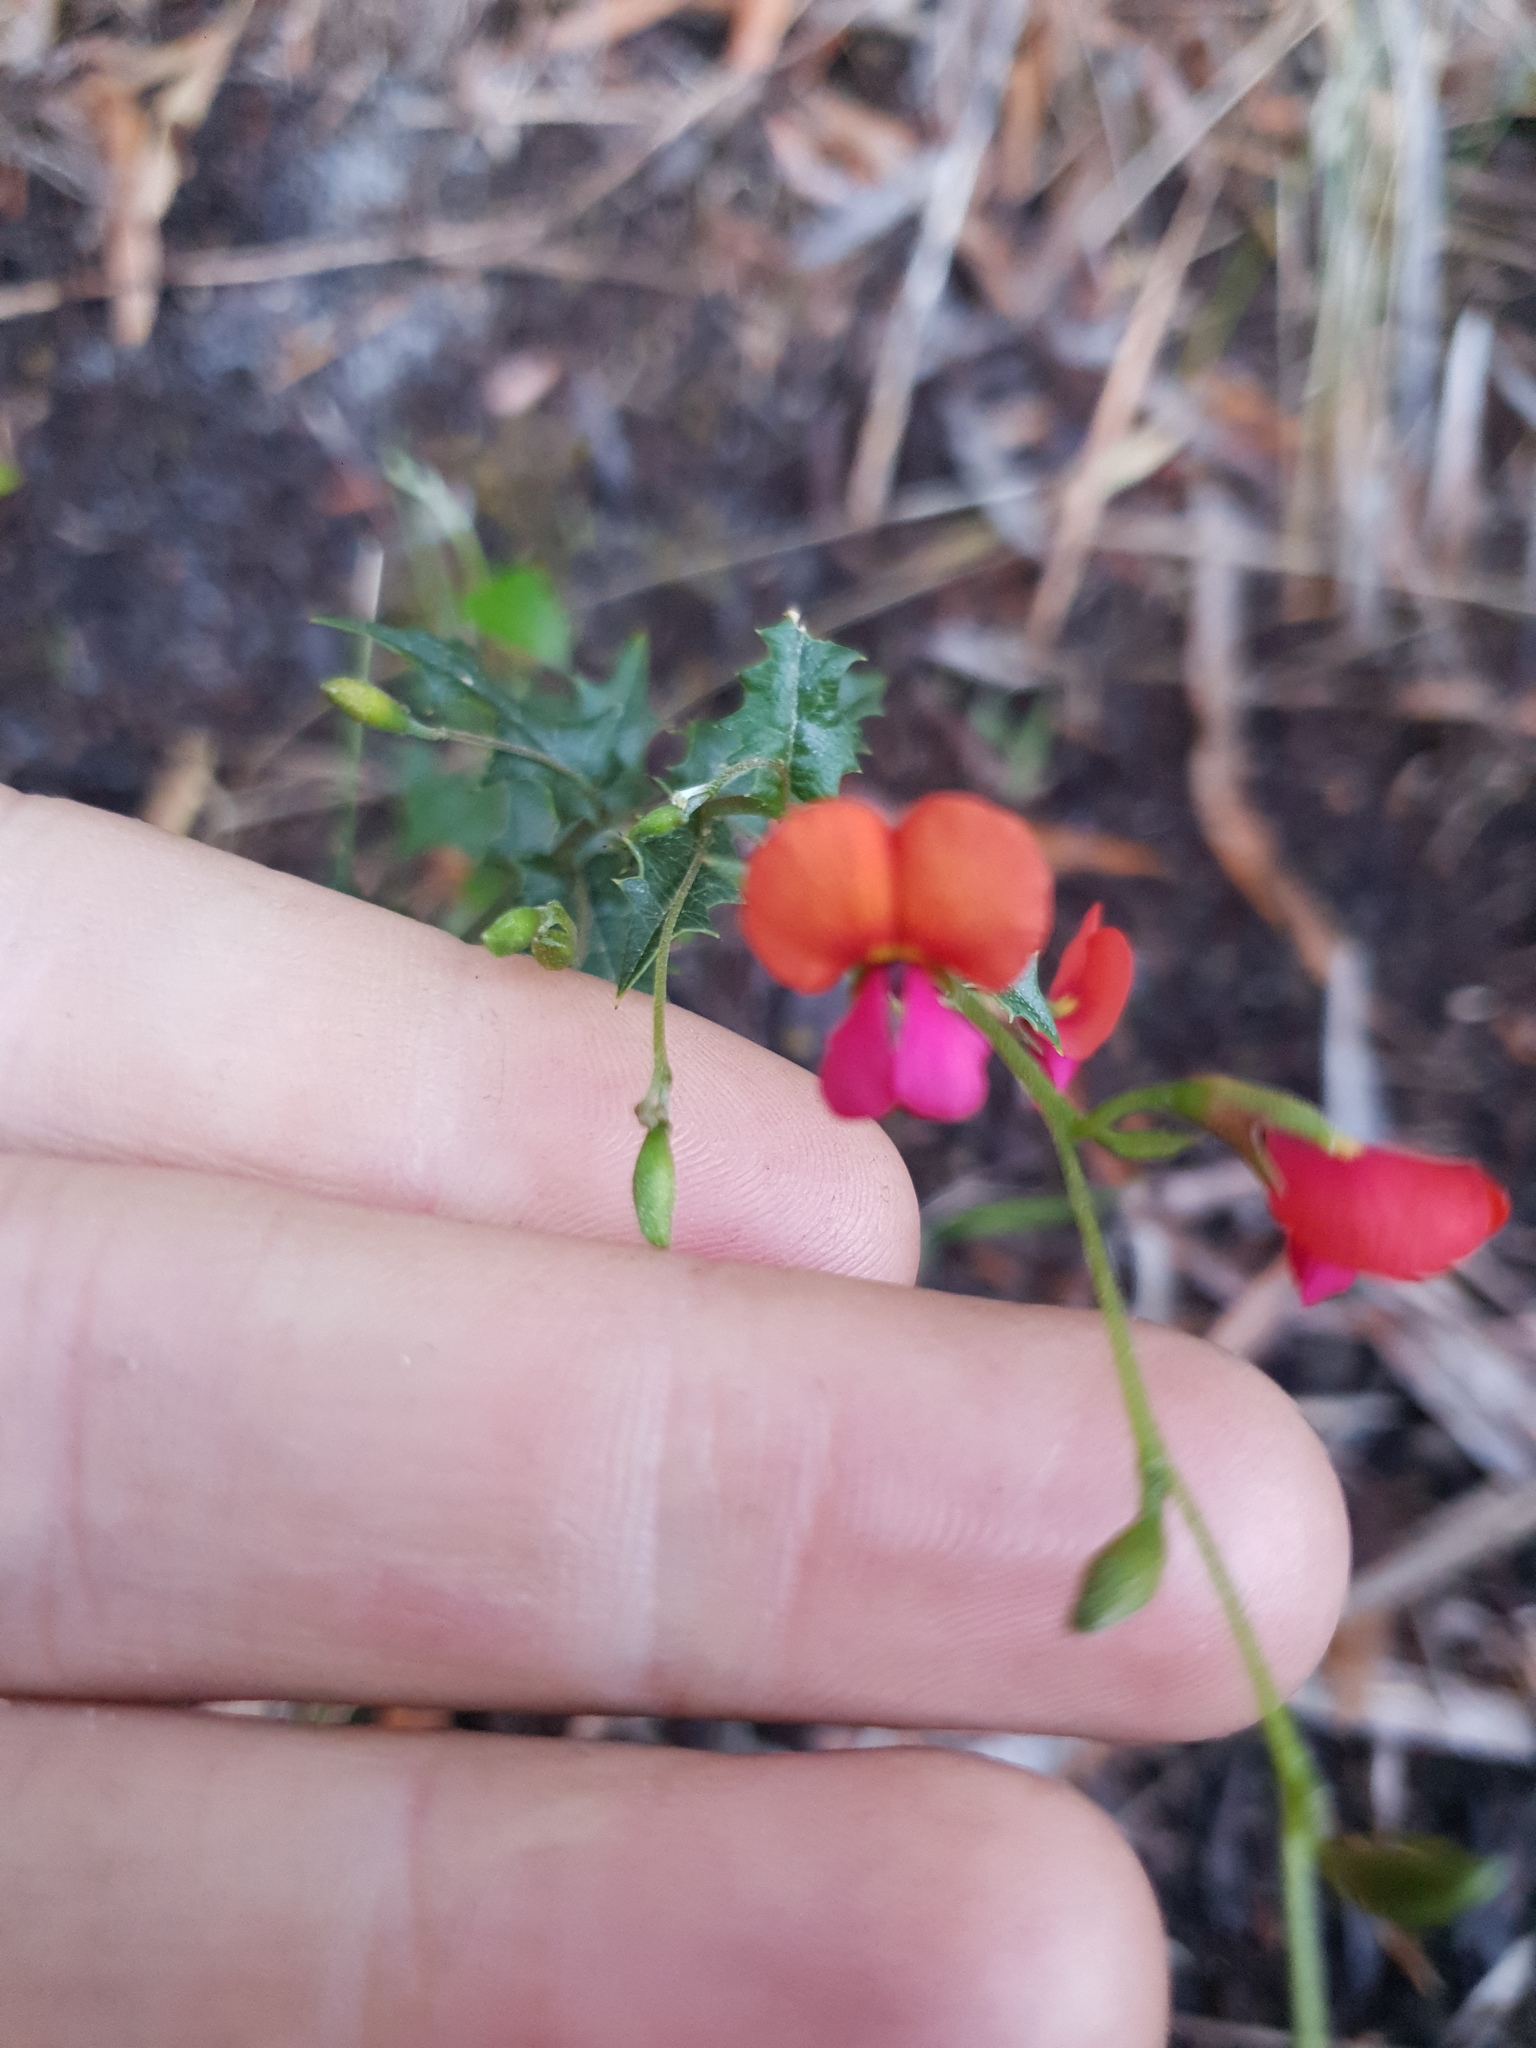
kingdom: Plantae
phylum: Tracheophyta
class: Magnoliopsida
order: Fabales
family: Fabaceae
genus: Chorizema
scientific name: Chorizema ilicifolium
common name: Holly flame-pea
